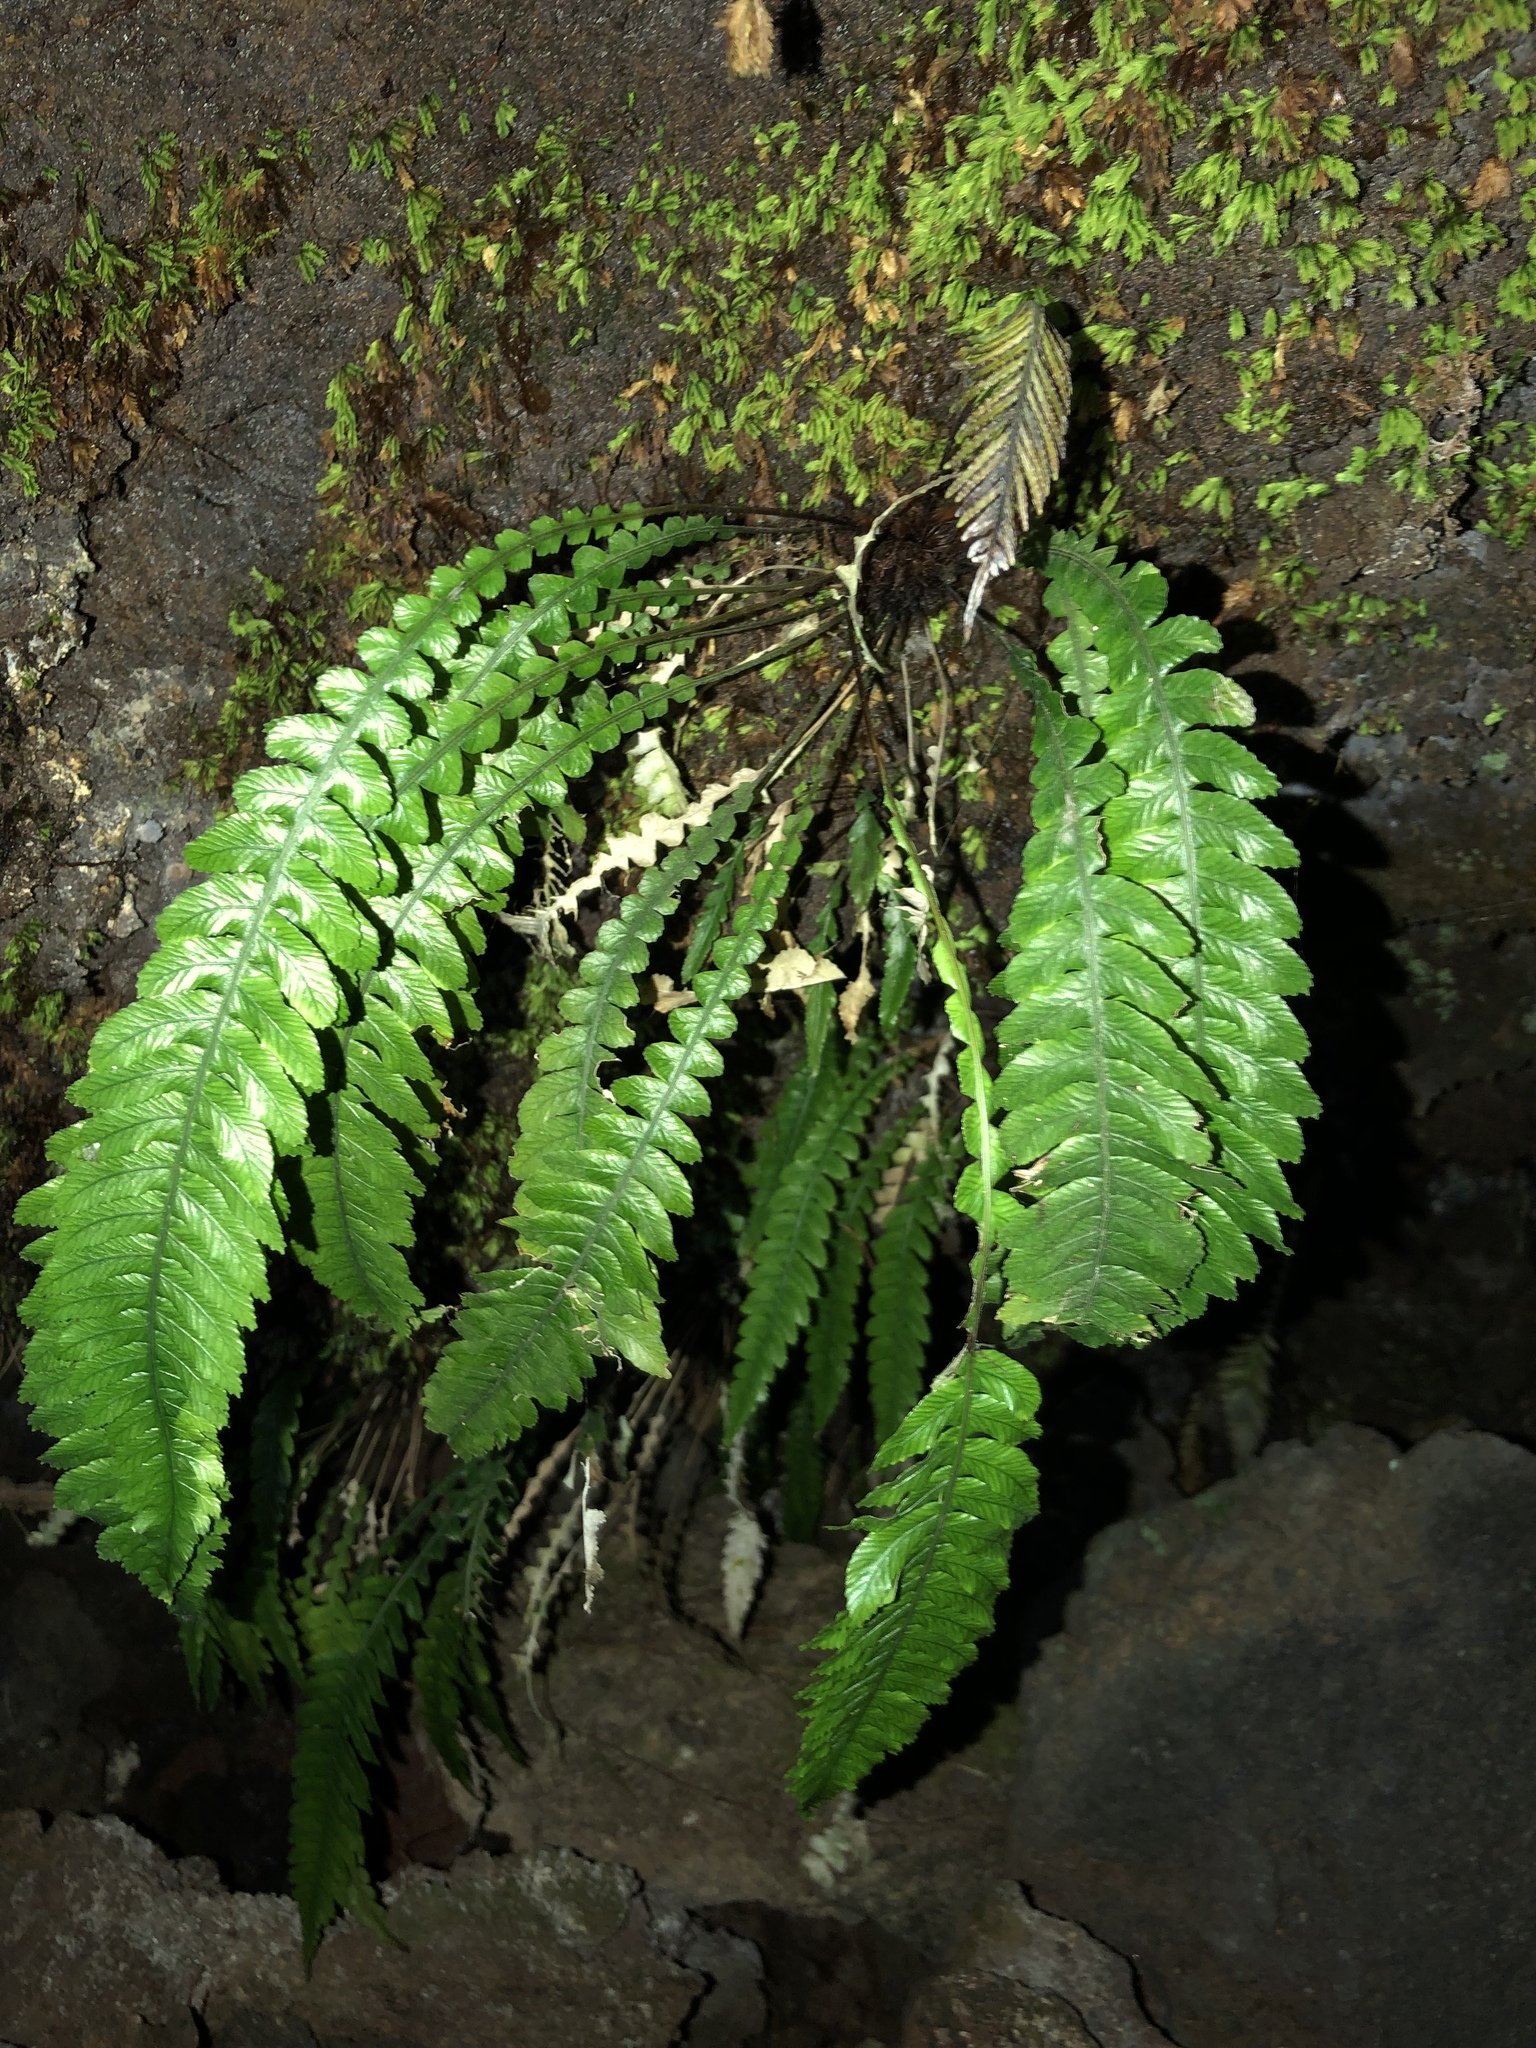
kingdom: Plantae
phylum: Tracheophyta
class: Polypodiopsida
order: Polypodiales
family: Blechnaceae
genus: Austroblechnum
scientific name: Austroblechnum lanceolatum
